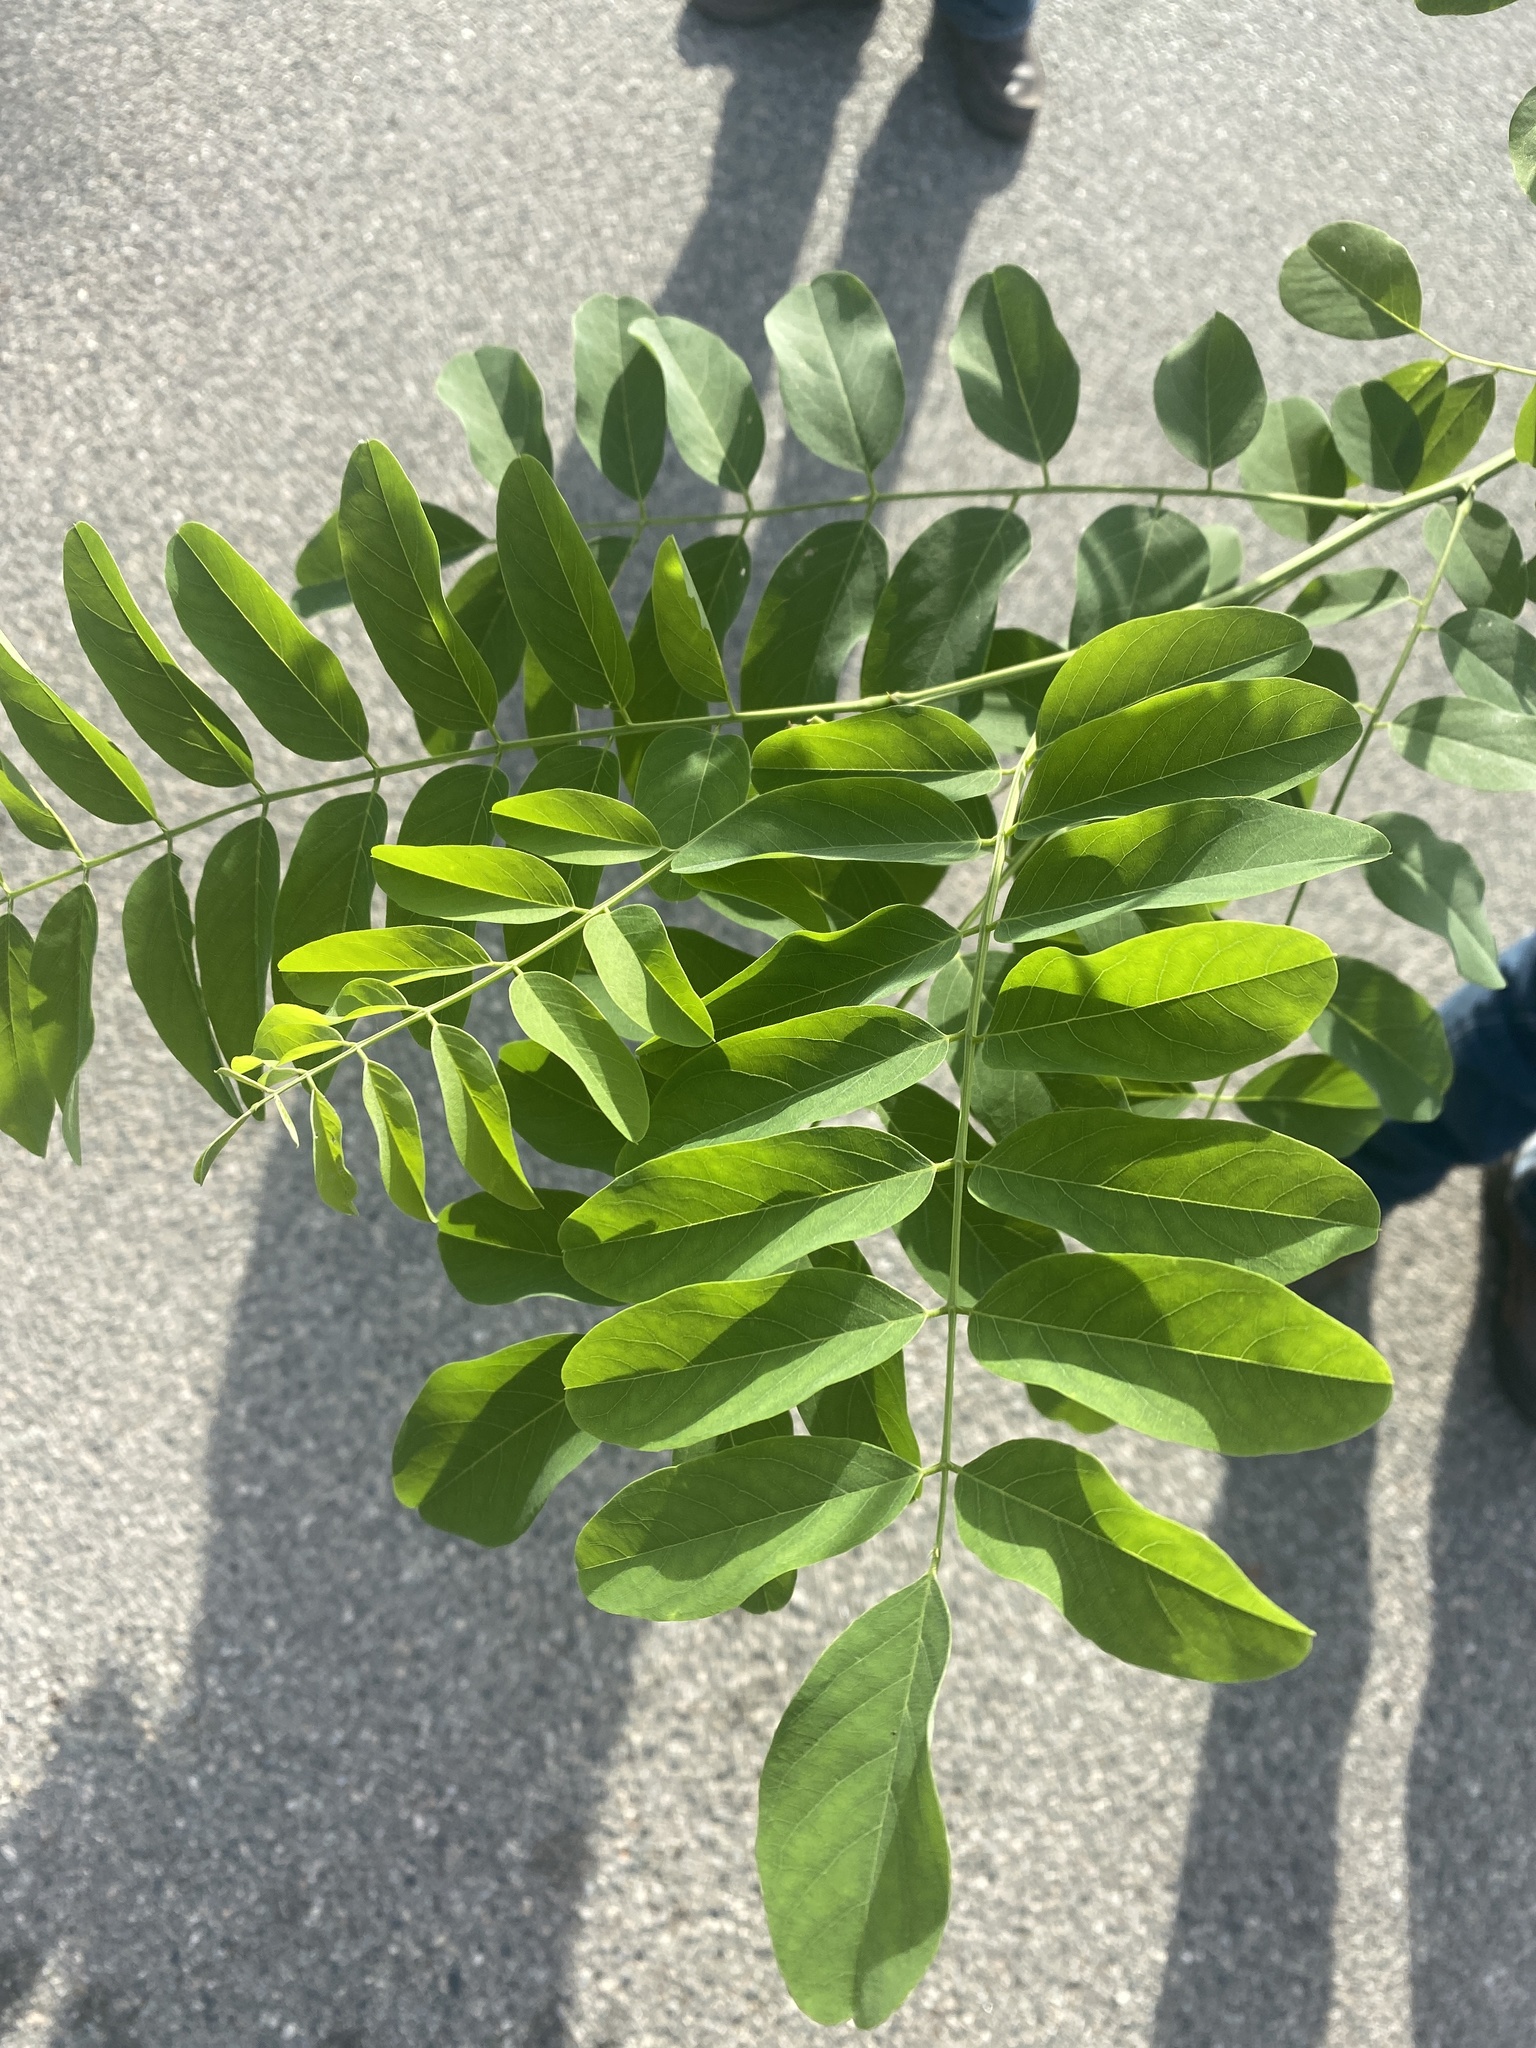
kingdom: Plantae
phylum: Tracheophyta
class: Magnoliopsida
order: Fabales
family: Fabaceae
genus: Robinia
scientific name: Robinia pseudoacacia
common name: Black locust
